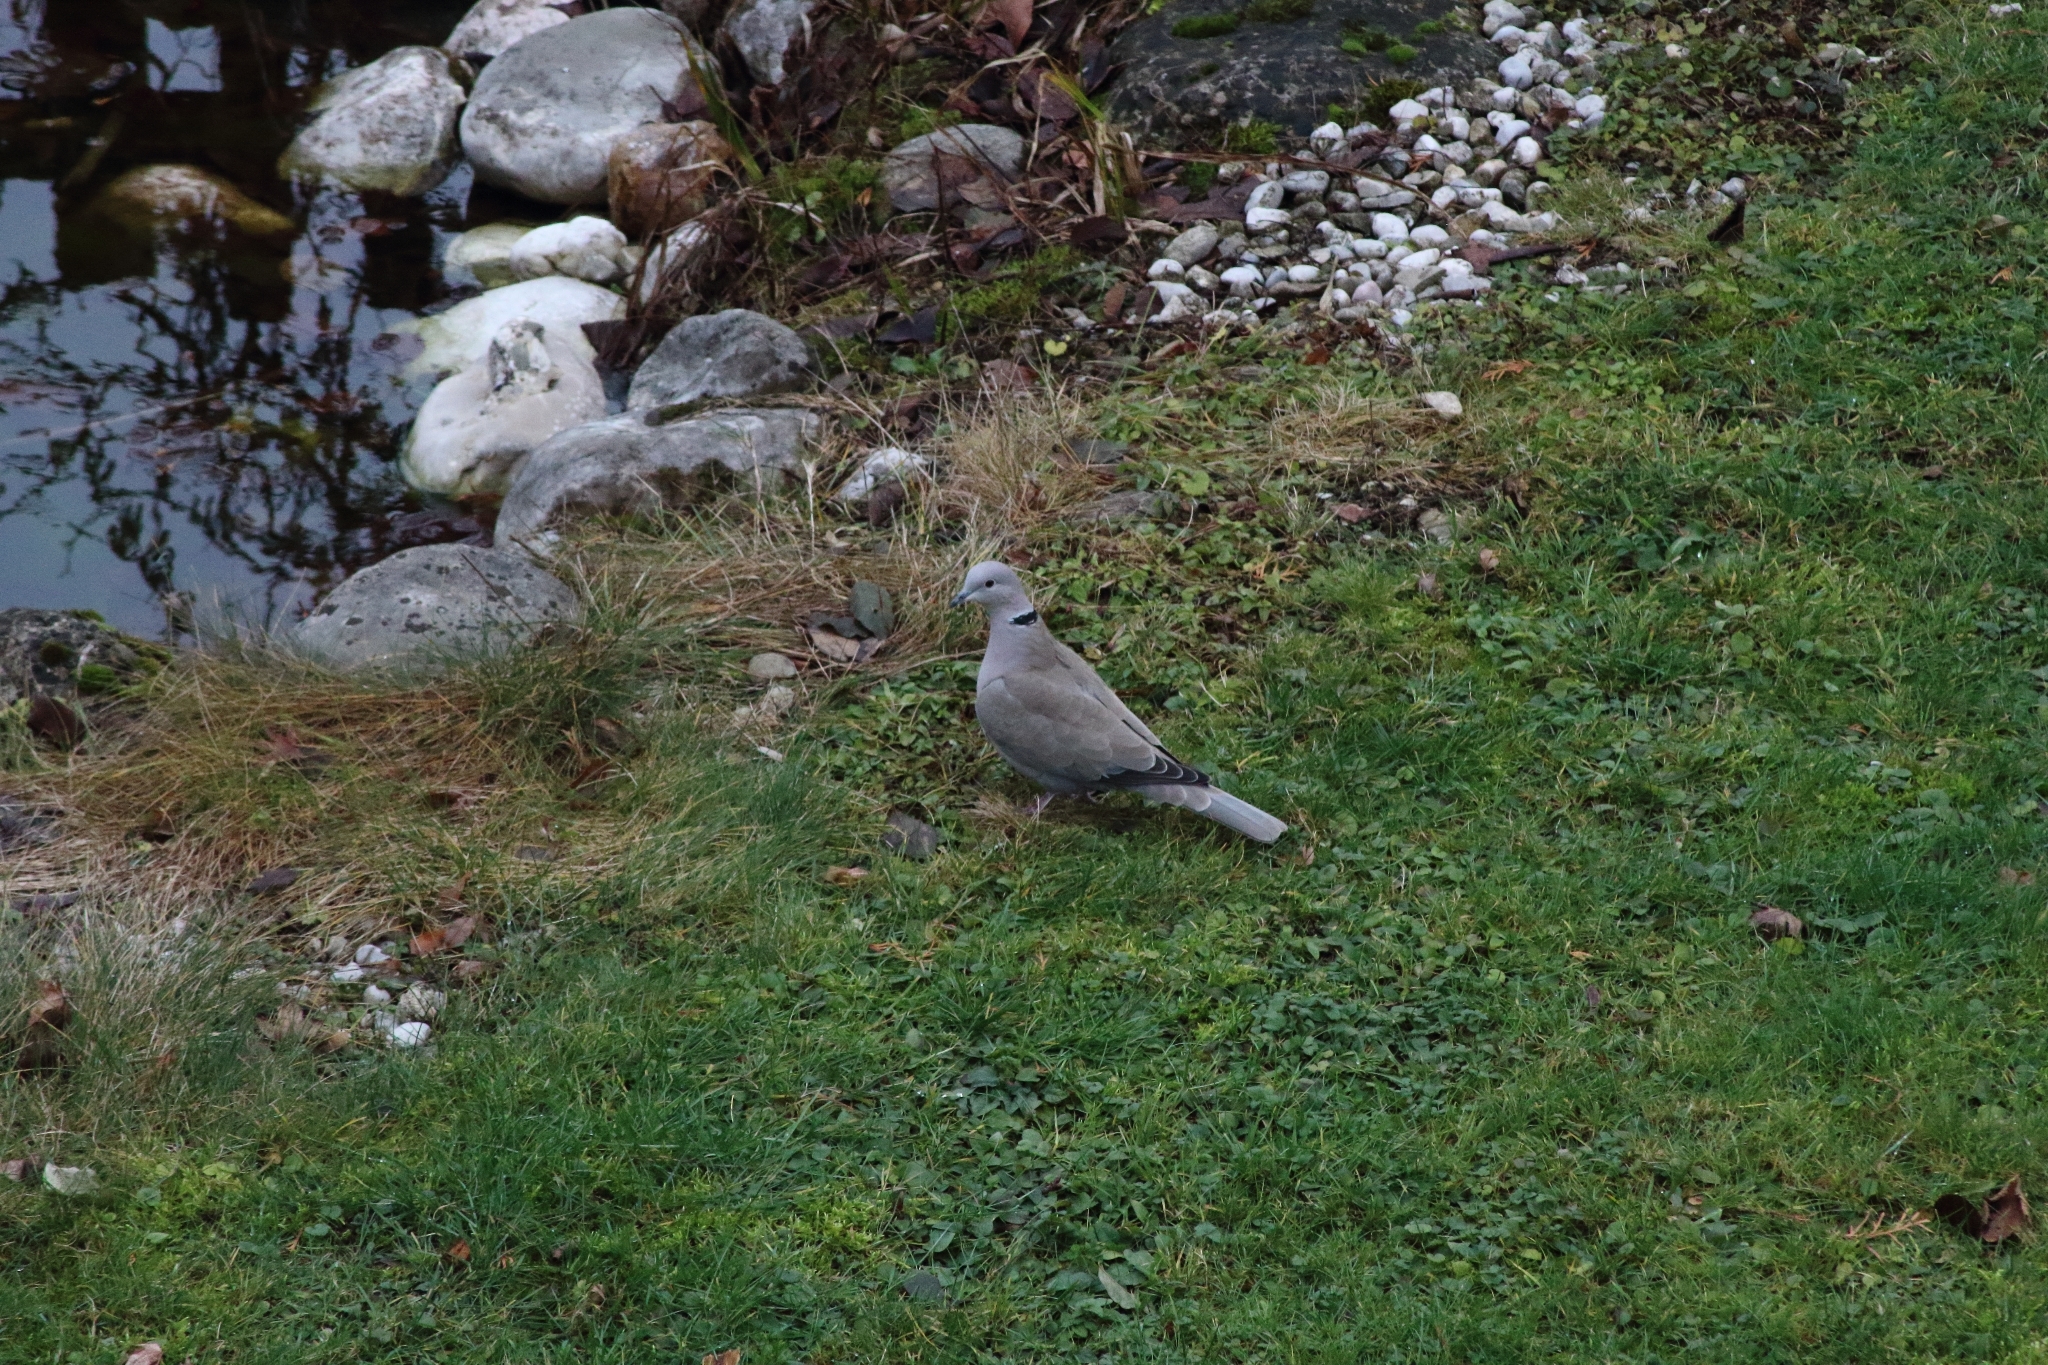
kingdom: Animalia
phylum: Chordata
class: Aves
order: Columbiformes
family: Columbidae
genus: Streptopelia
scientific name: Streptopelia decaocto
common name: Eurasian collared dove
